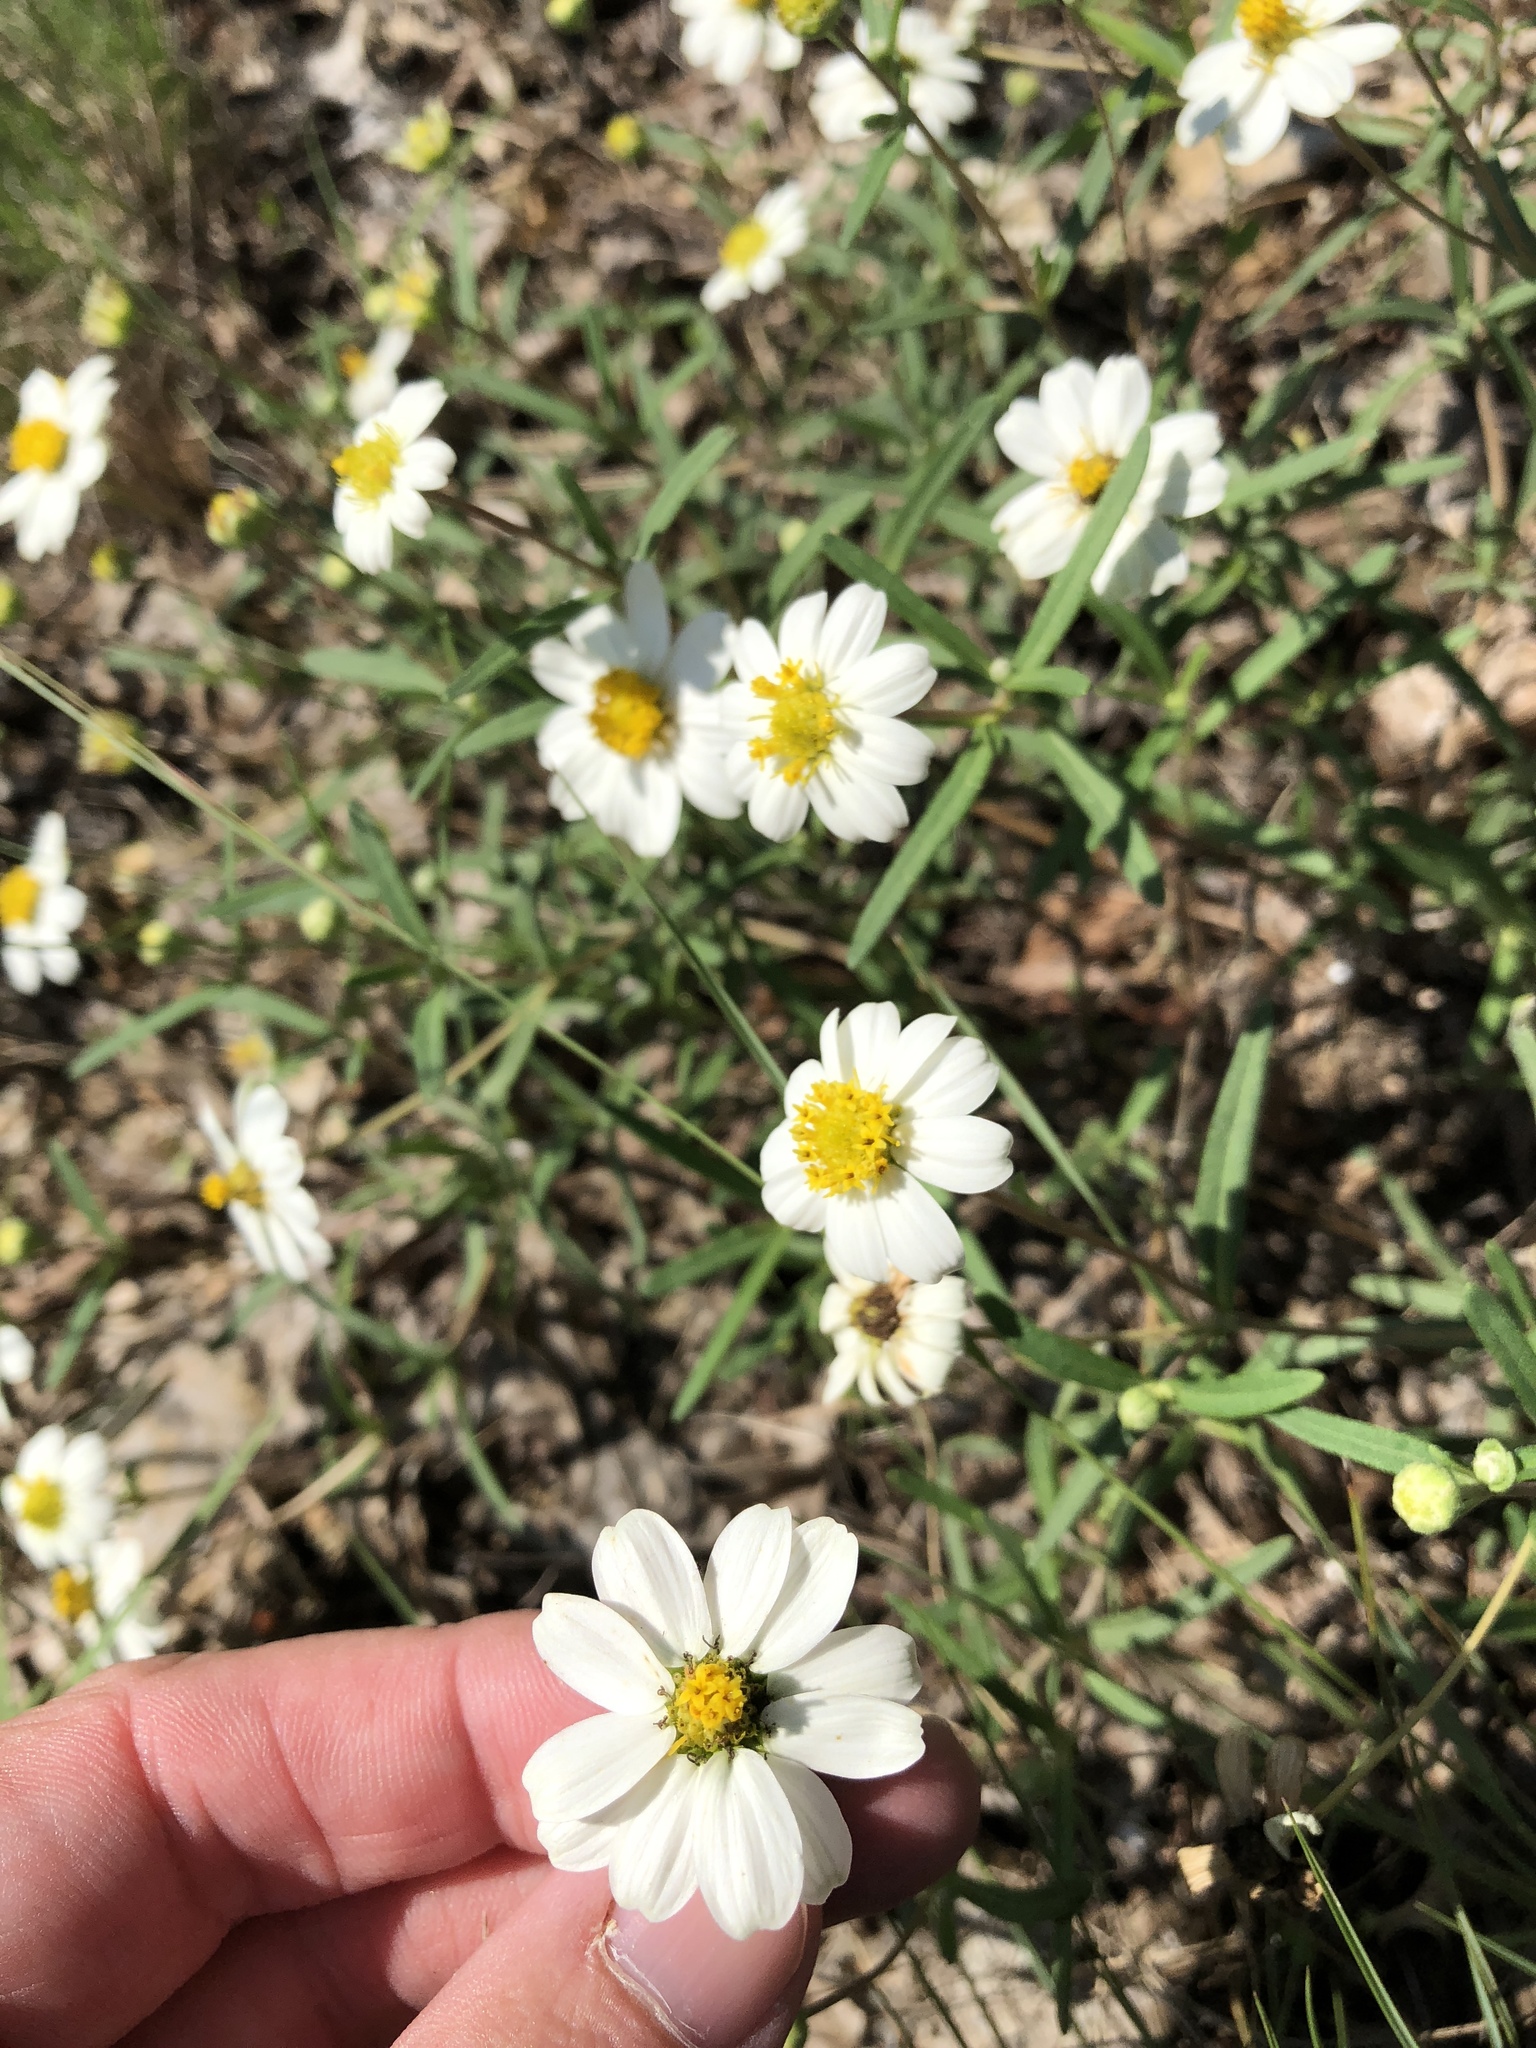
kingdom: Plantae
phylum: Tracheophyta
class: Magnoliopsida
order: Asterales
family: Asteraceae
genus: Melampodium
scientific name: Melampodium leucanthum
